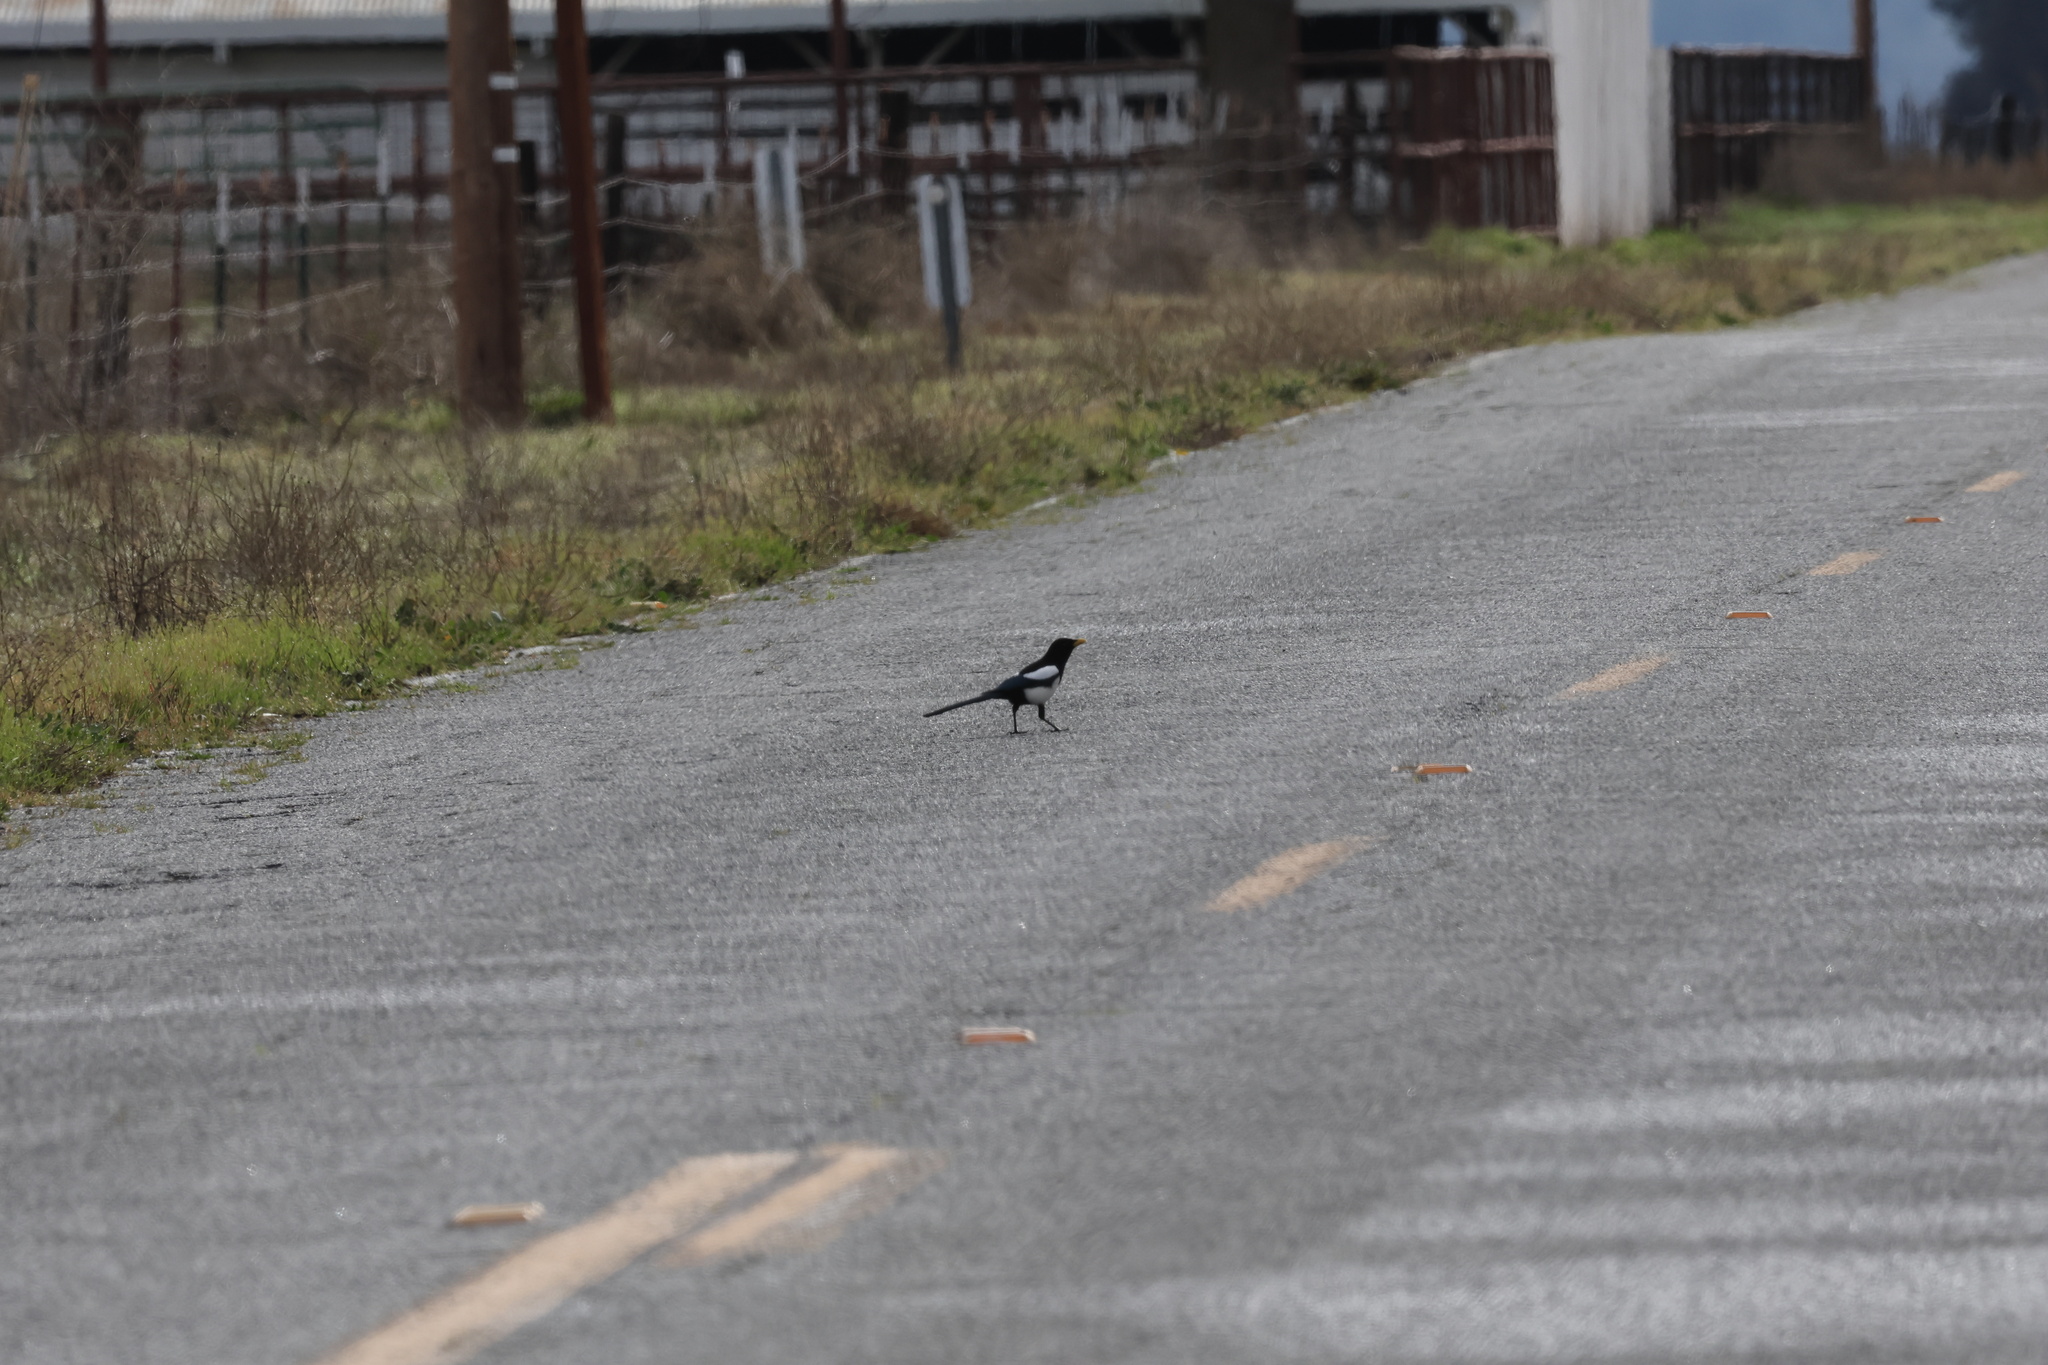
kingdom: Animalia
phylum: Chordata
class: Aves
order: Passeriformes
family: Corvidae
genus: Pica
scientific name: Pica nuttalli
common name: Yellow-billed magpie
